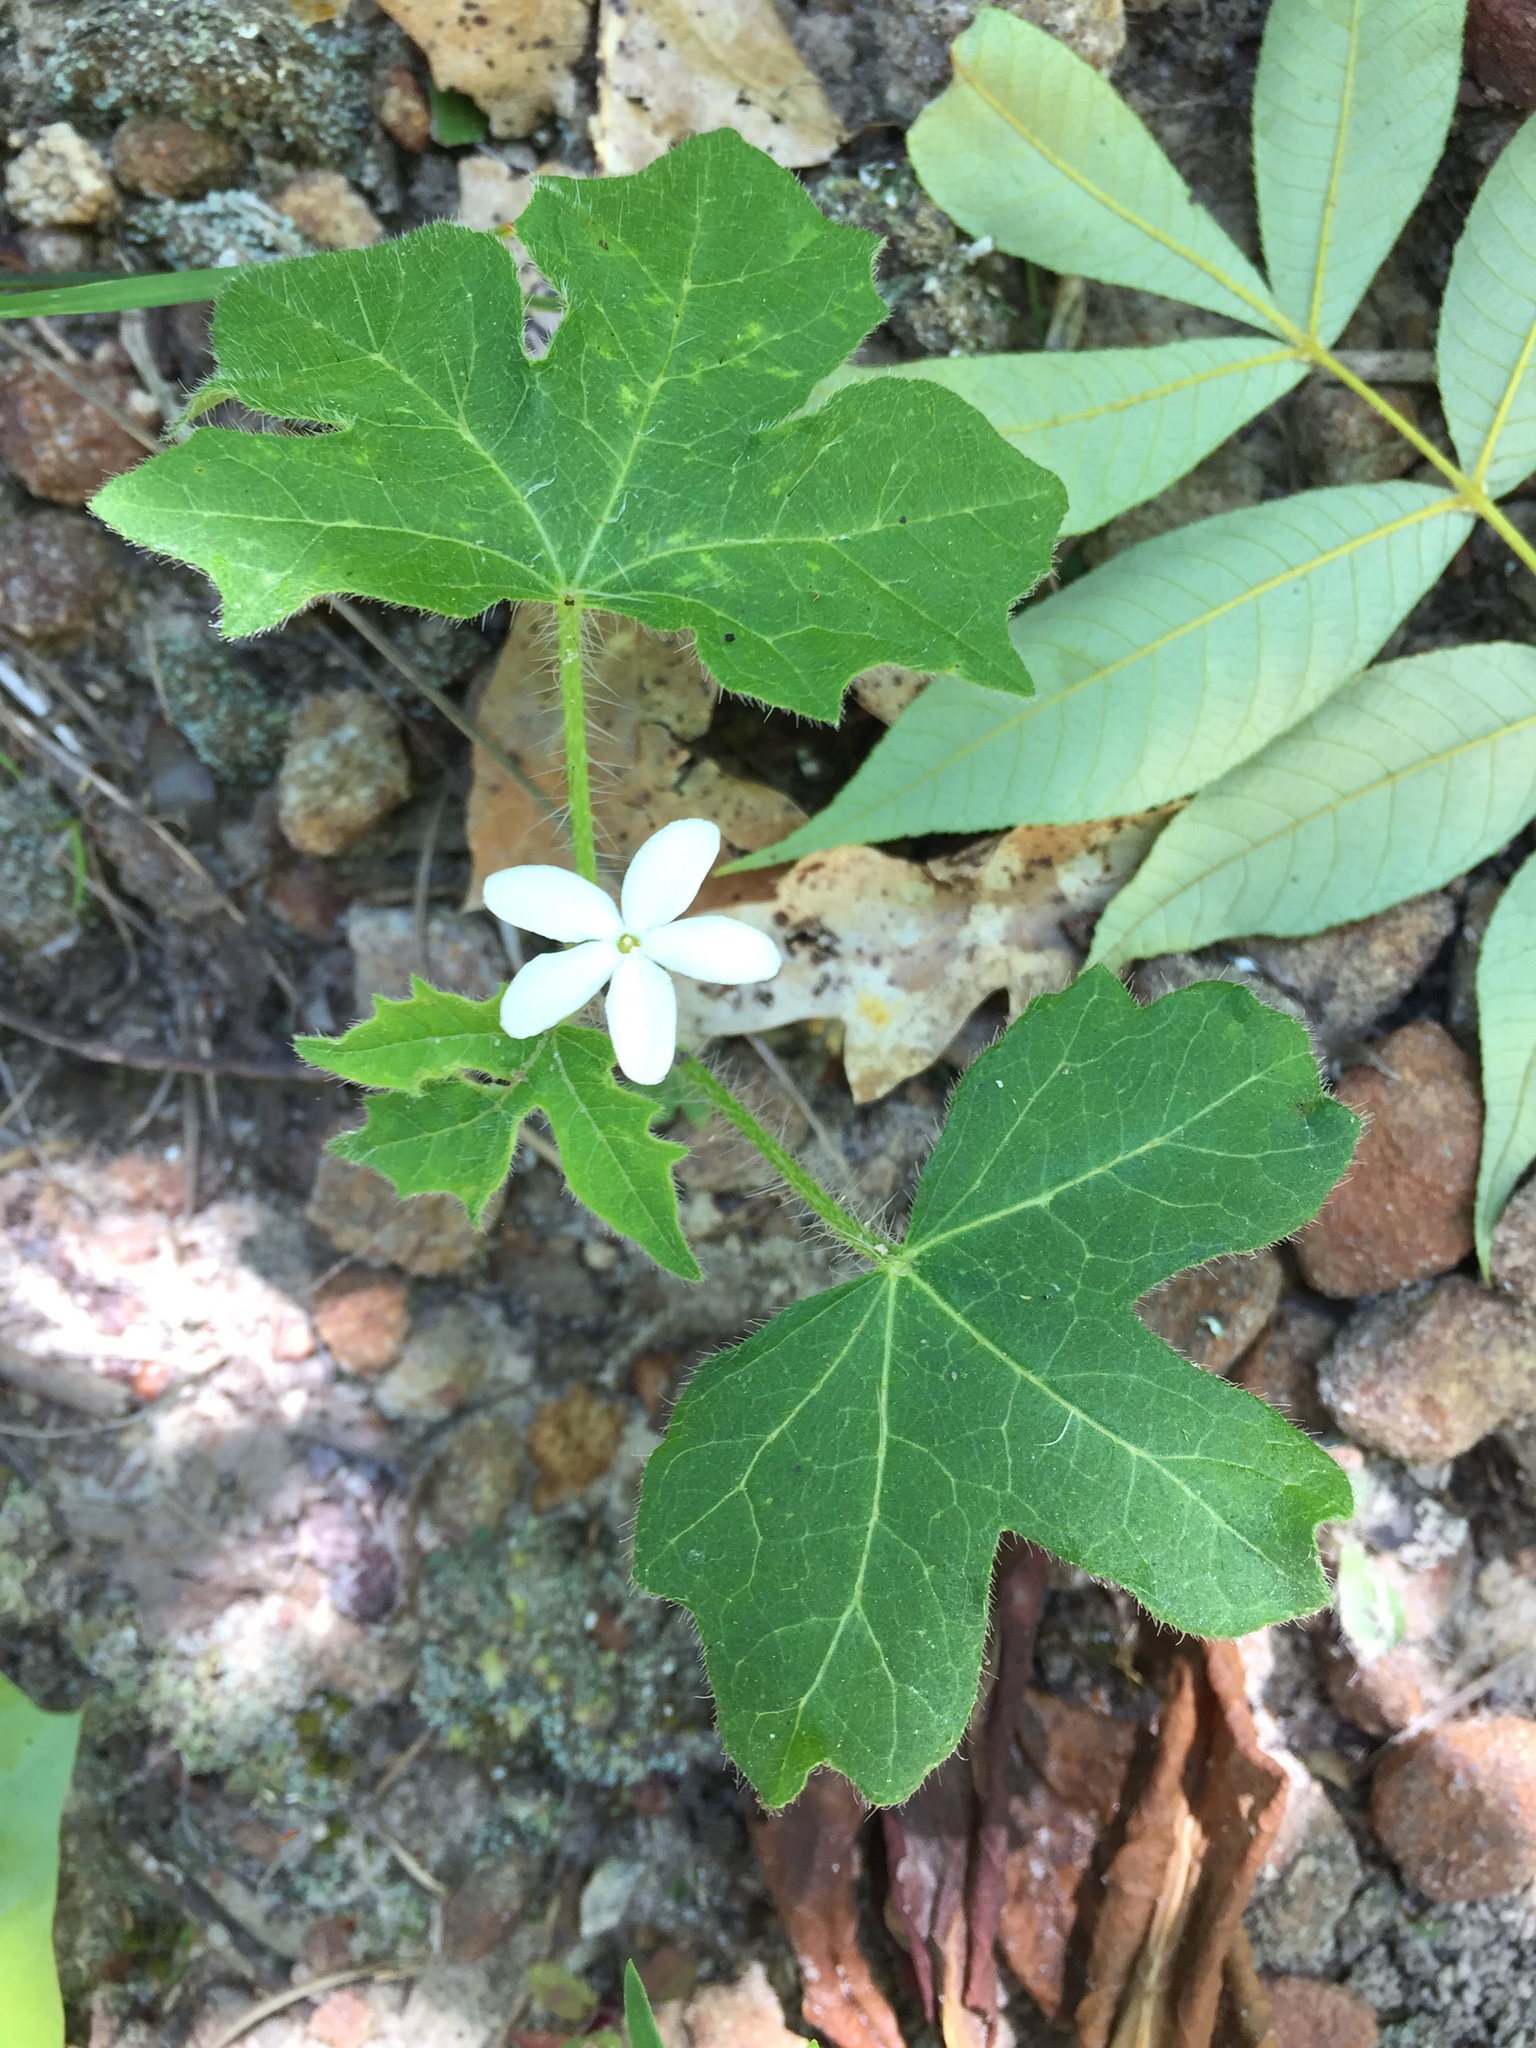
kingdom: Plantae
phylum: Tracheophyta
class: Magnoliopsida
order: Malpighiales
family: Euphorbiaceae
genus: Cnidoscolus
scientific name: Cnidoscolus stimulosus
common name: Bull-nettle
